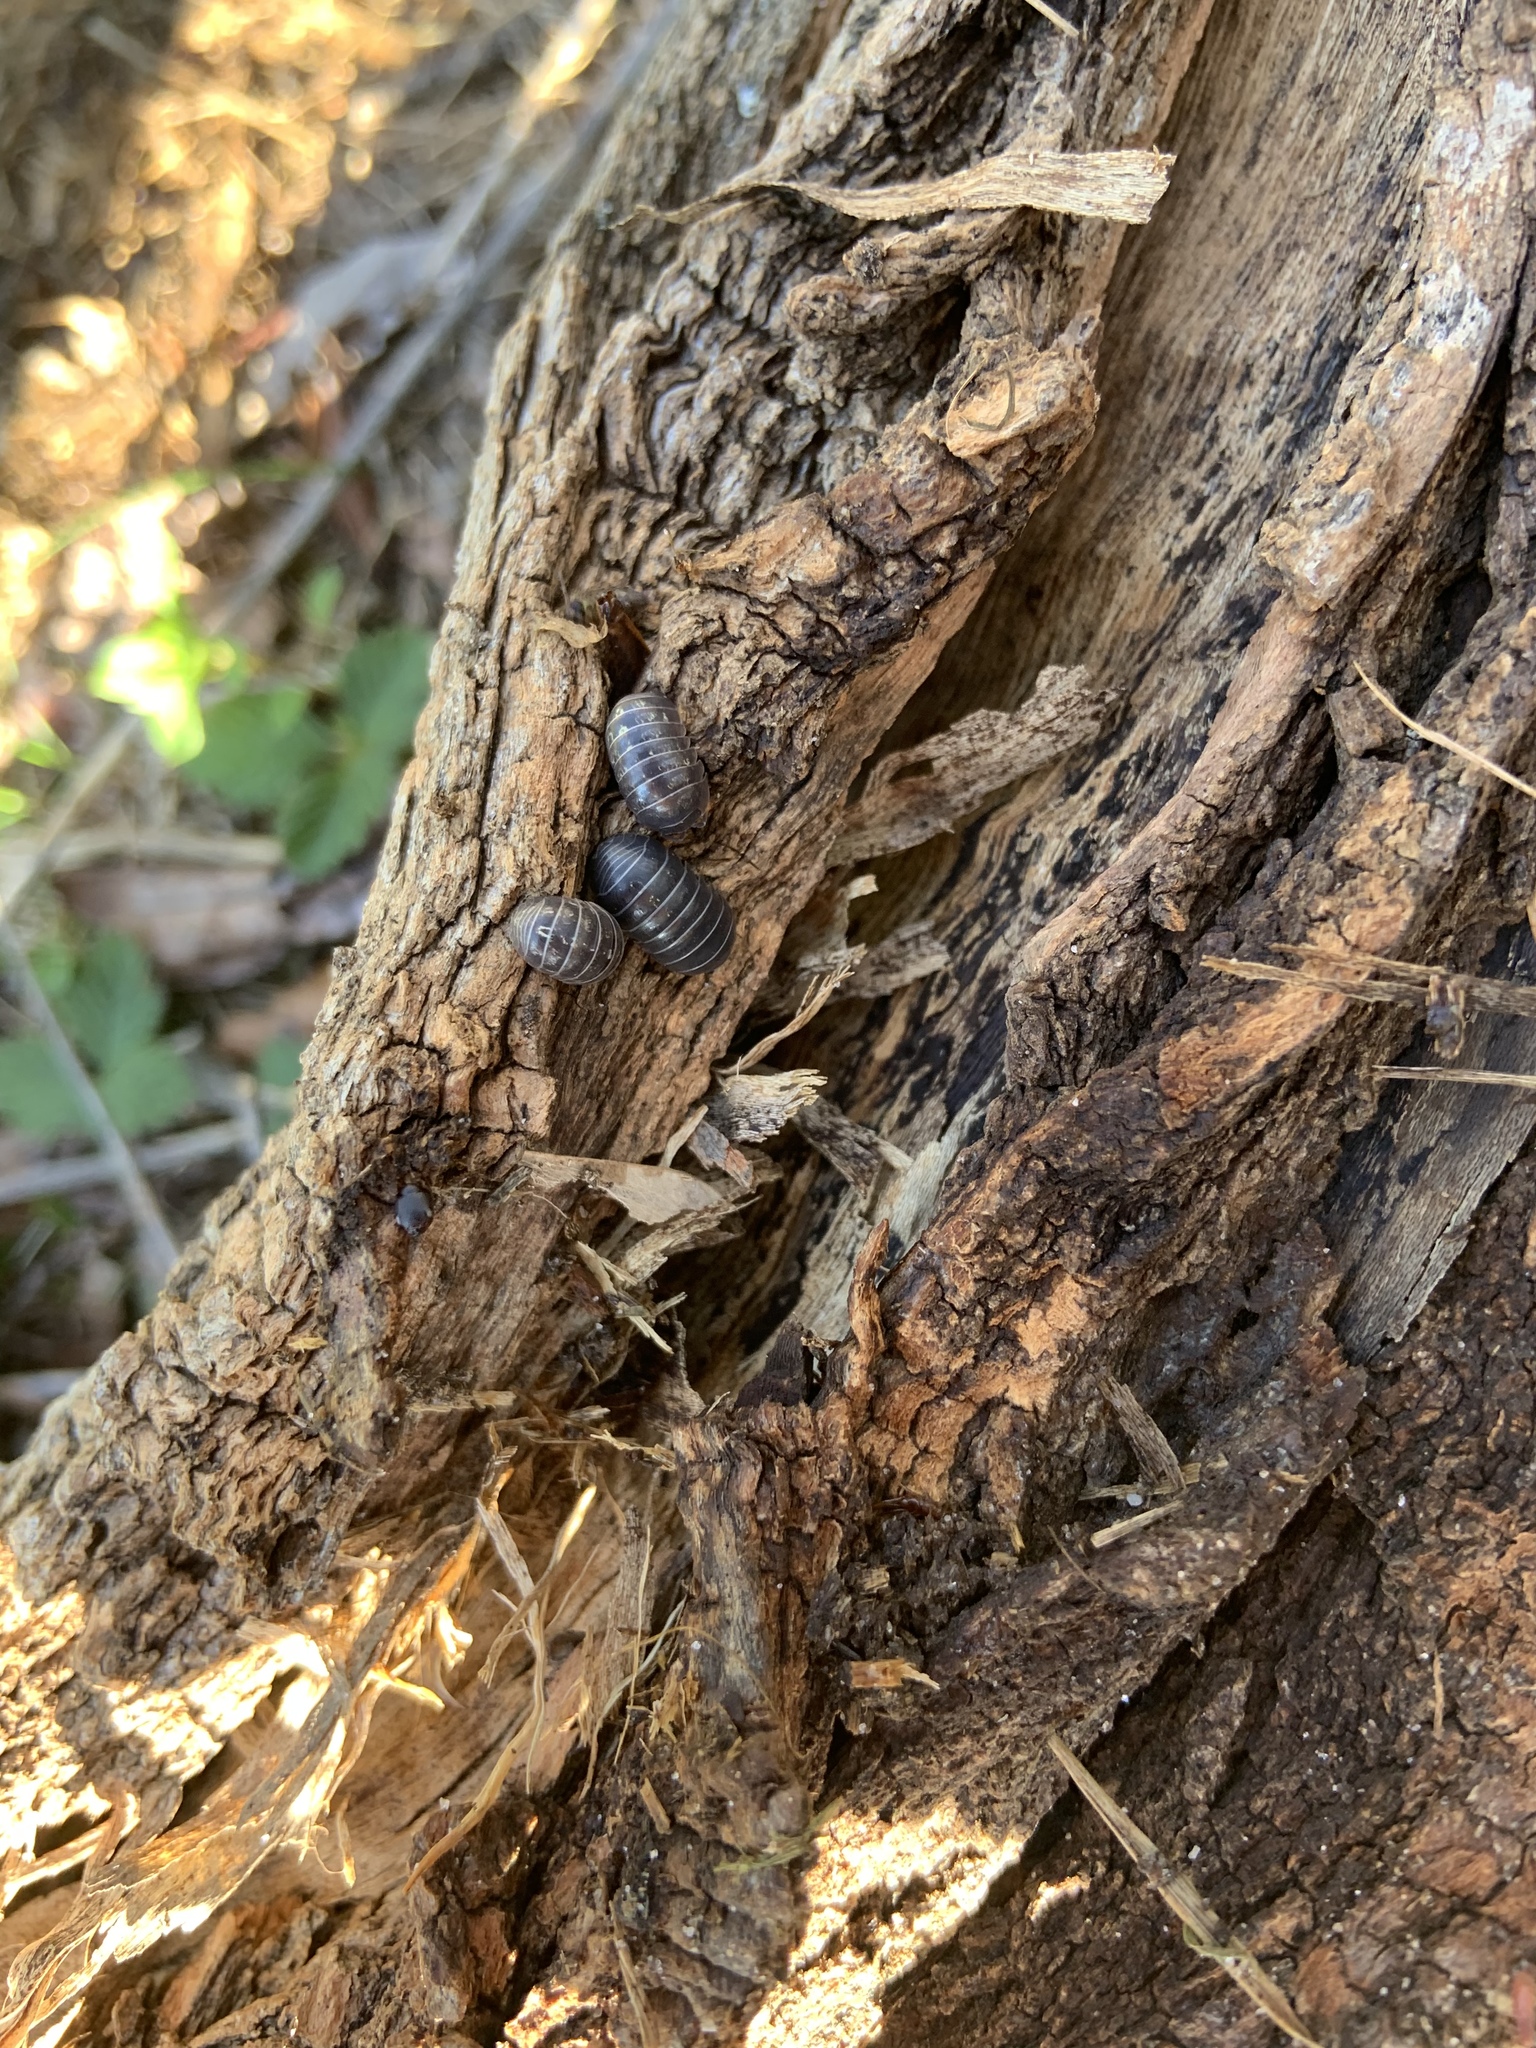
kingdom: Animalia
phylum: Arthropoda
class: Malacostraca
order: Isopoda
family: Armadillidiidae
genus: Armadillidium
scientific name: Armadillidium vulgare
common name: Common pill woodlouse
